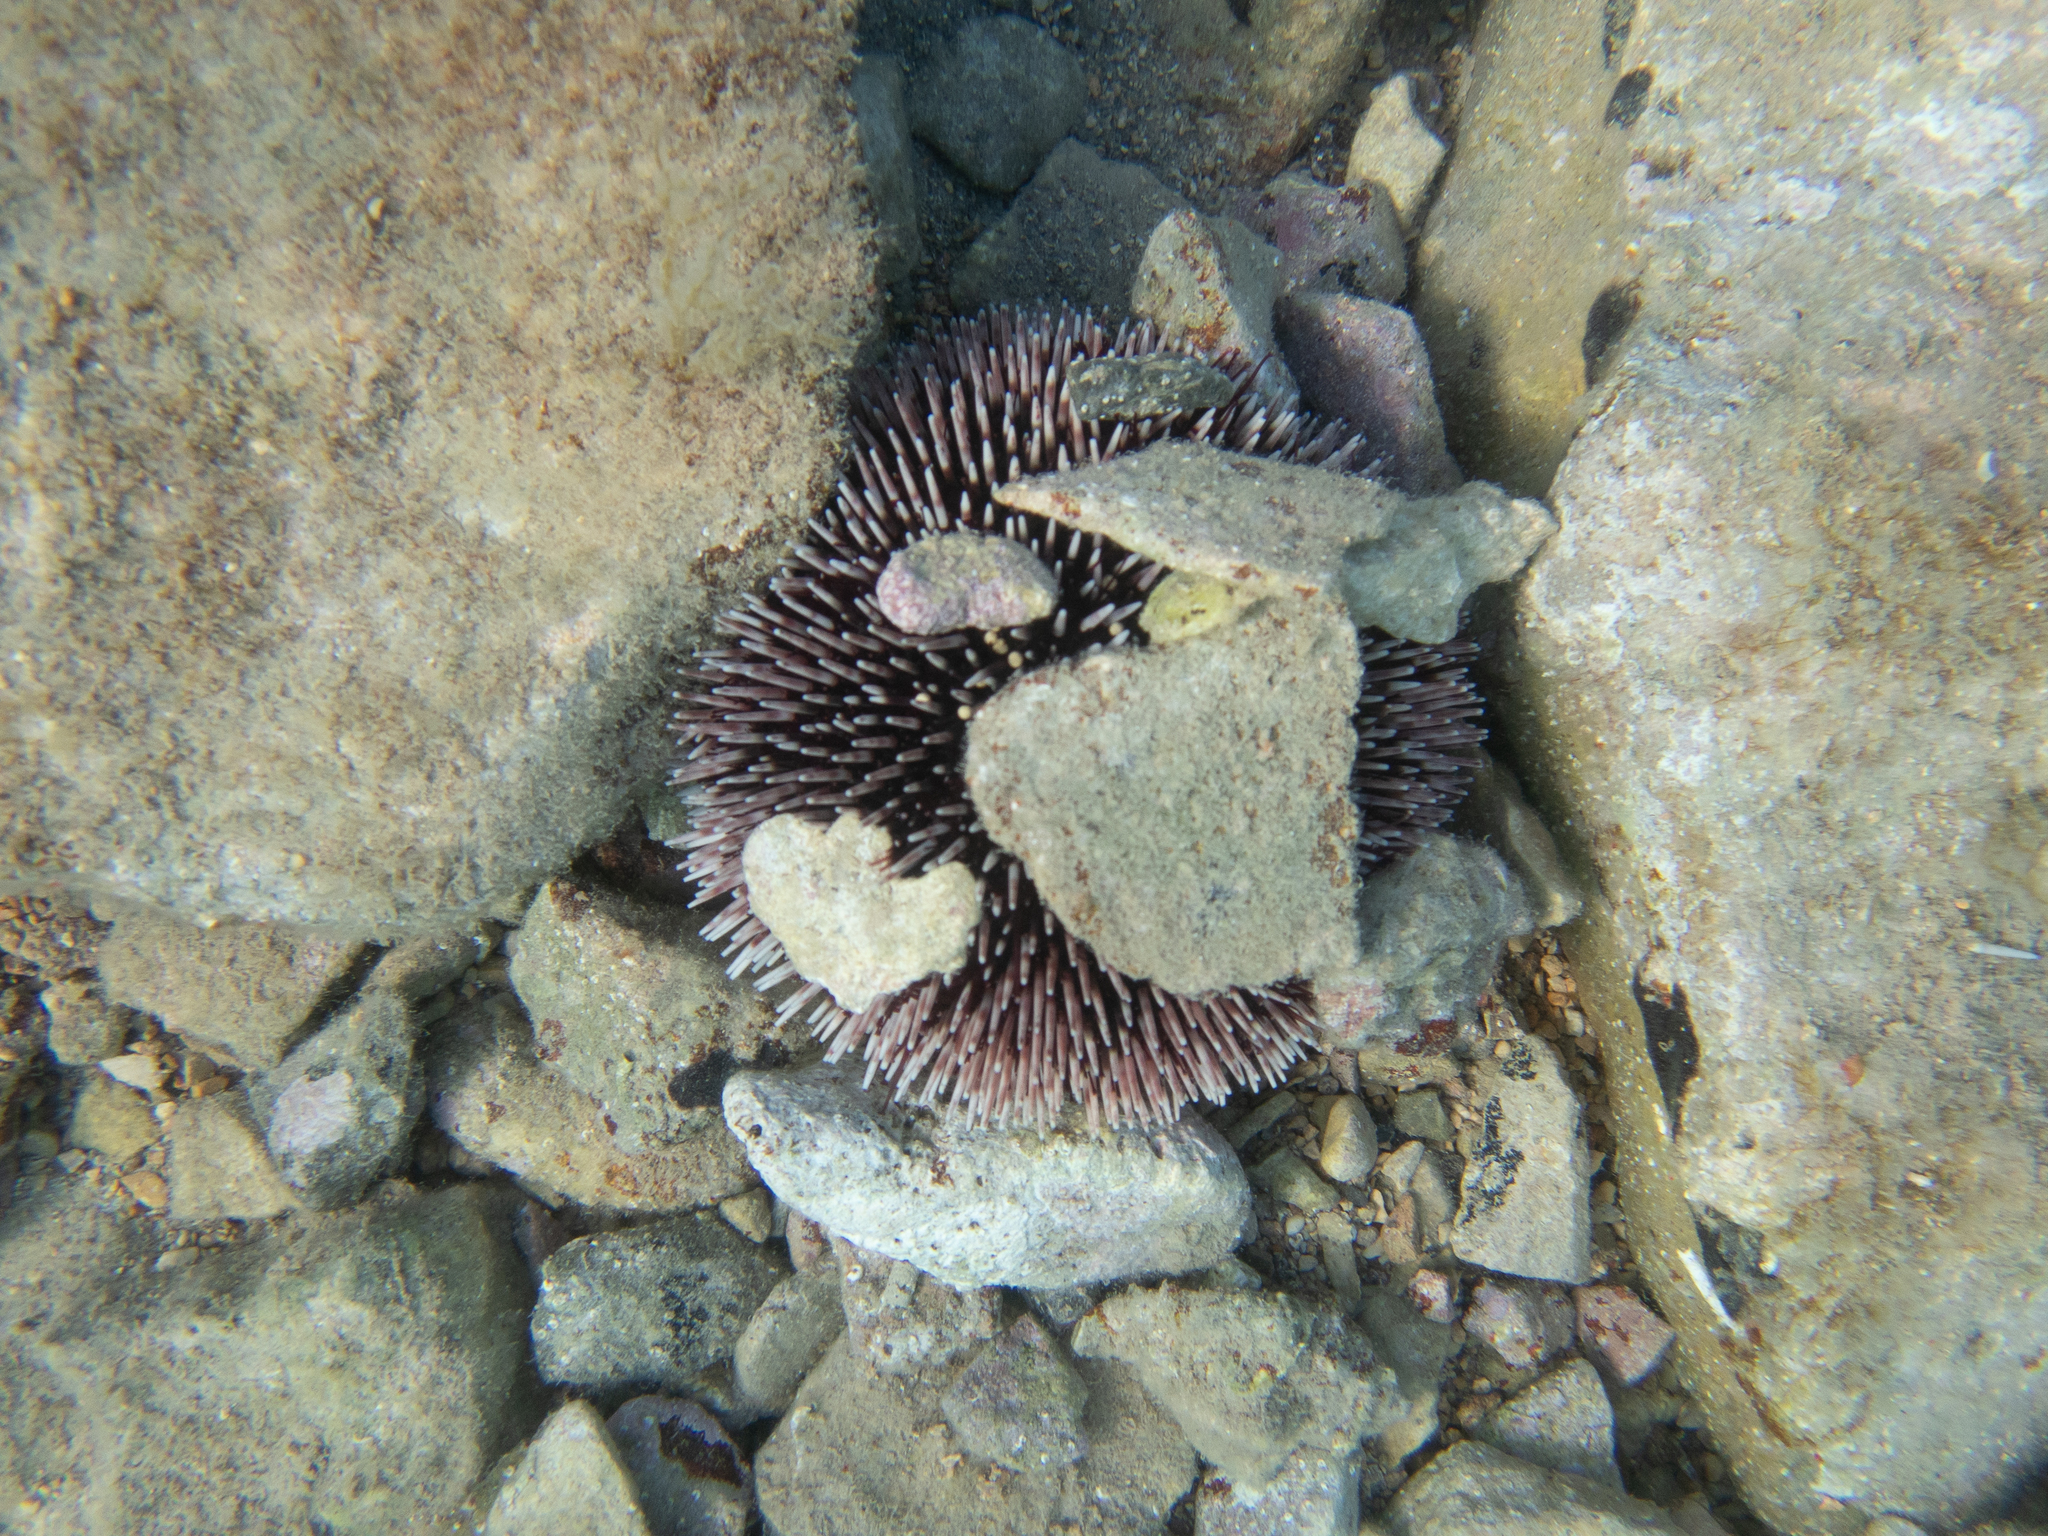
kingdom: Animalia
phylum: Echinodermata
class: Echinoidea
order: Camarodonta
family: Toxopneustidae
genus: Sphaerechinus
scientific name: Sphaerechinus granularis
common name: Violet sea urchin
